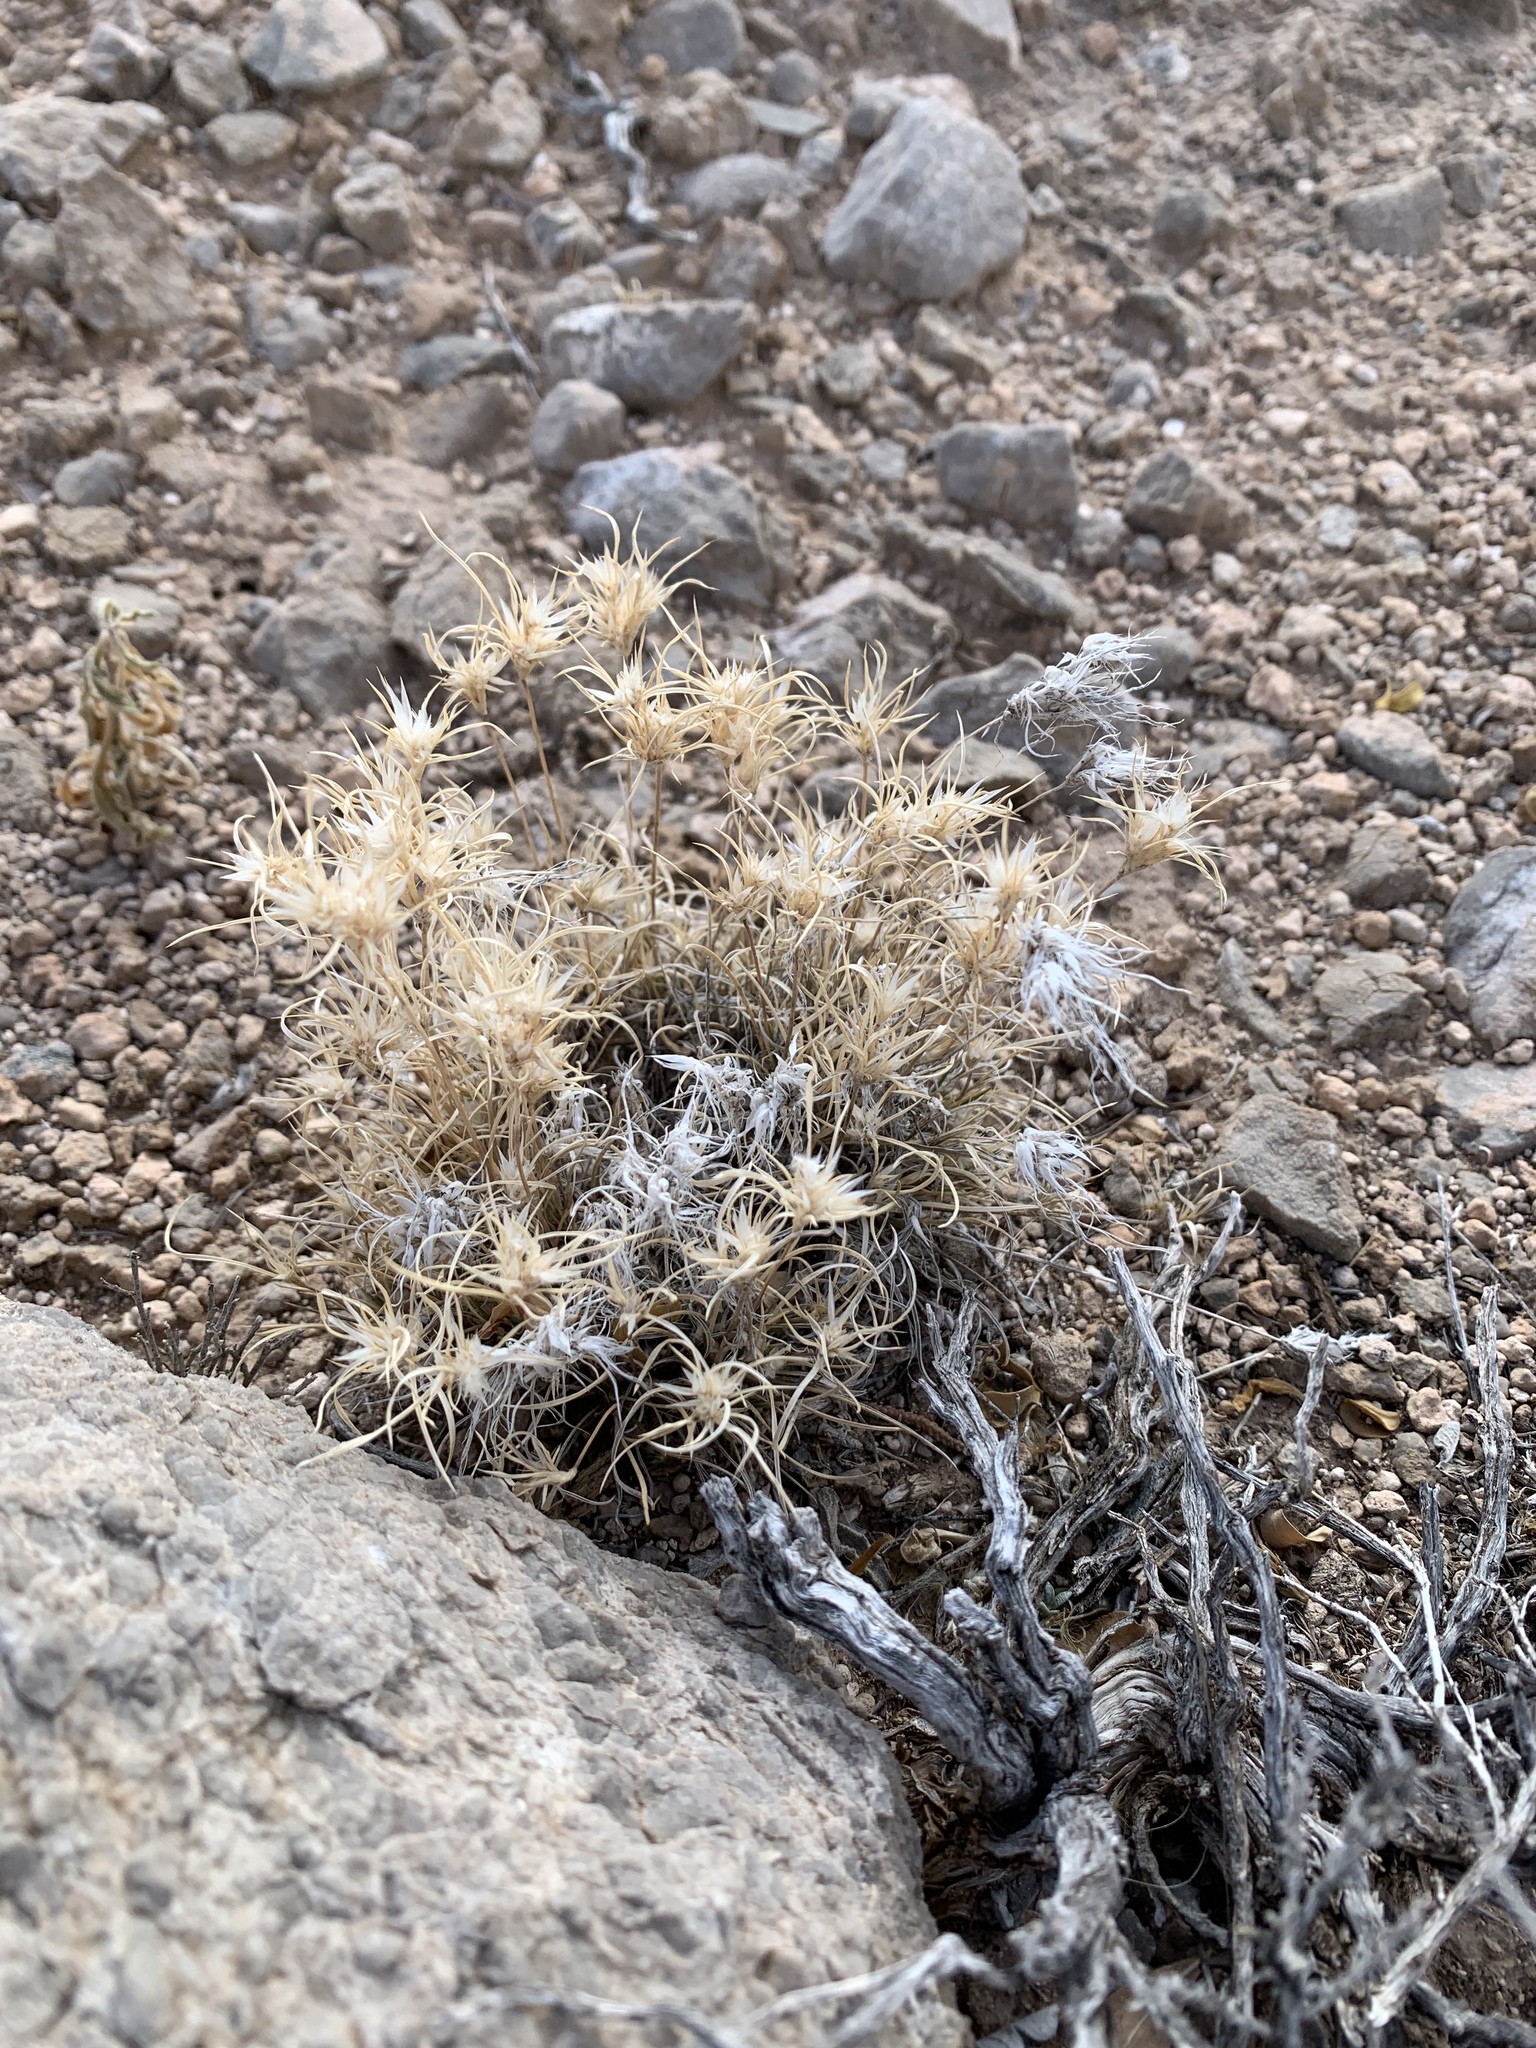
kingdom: Plantae
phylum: Tracheophyta
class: Liliopsida
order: Poales
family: Poaceae
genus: Dasyochloa
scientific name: Dasyochloa pulchella
